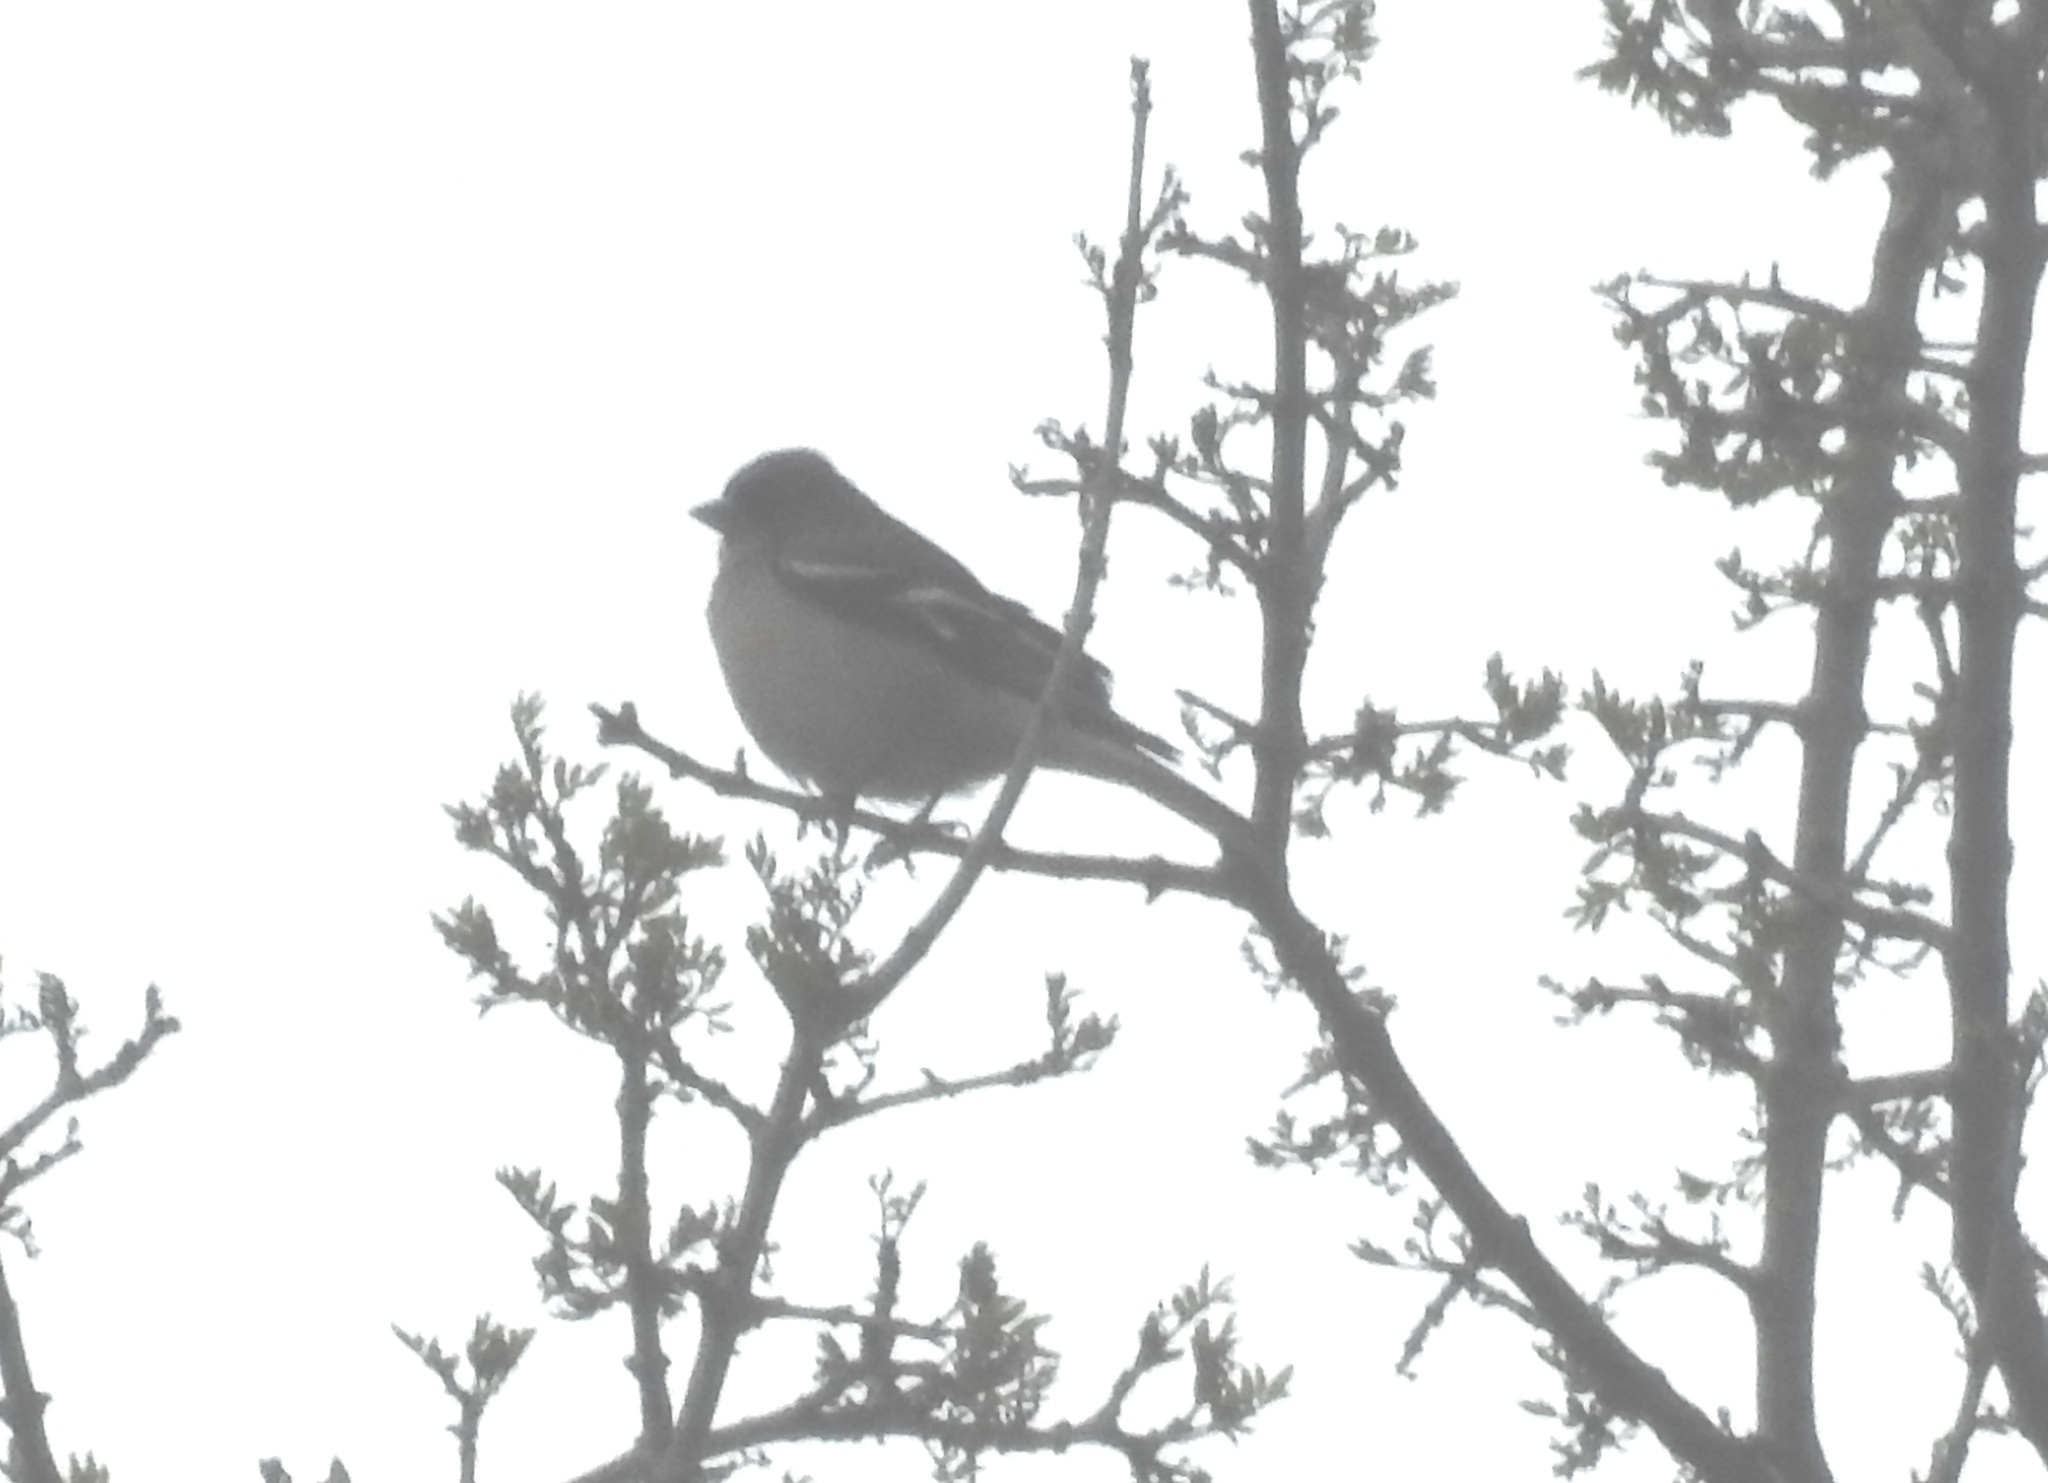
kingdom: Animalia
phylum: Chordata
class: Aves
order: Passeriformes
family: Fringillidae
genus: Fringilla
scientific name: Fringilla spodiogenys
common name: African chaffinch
